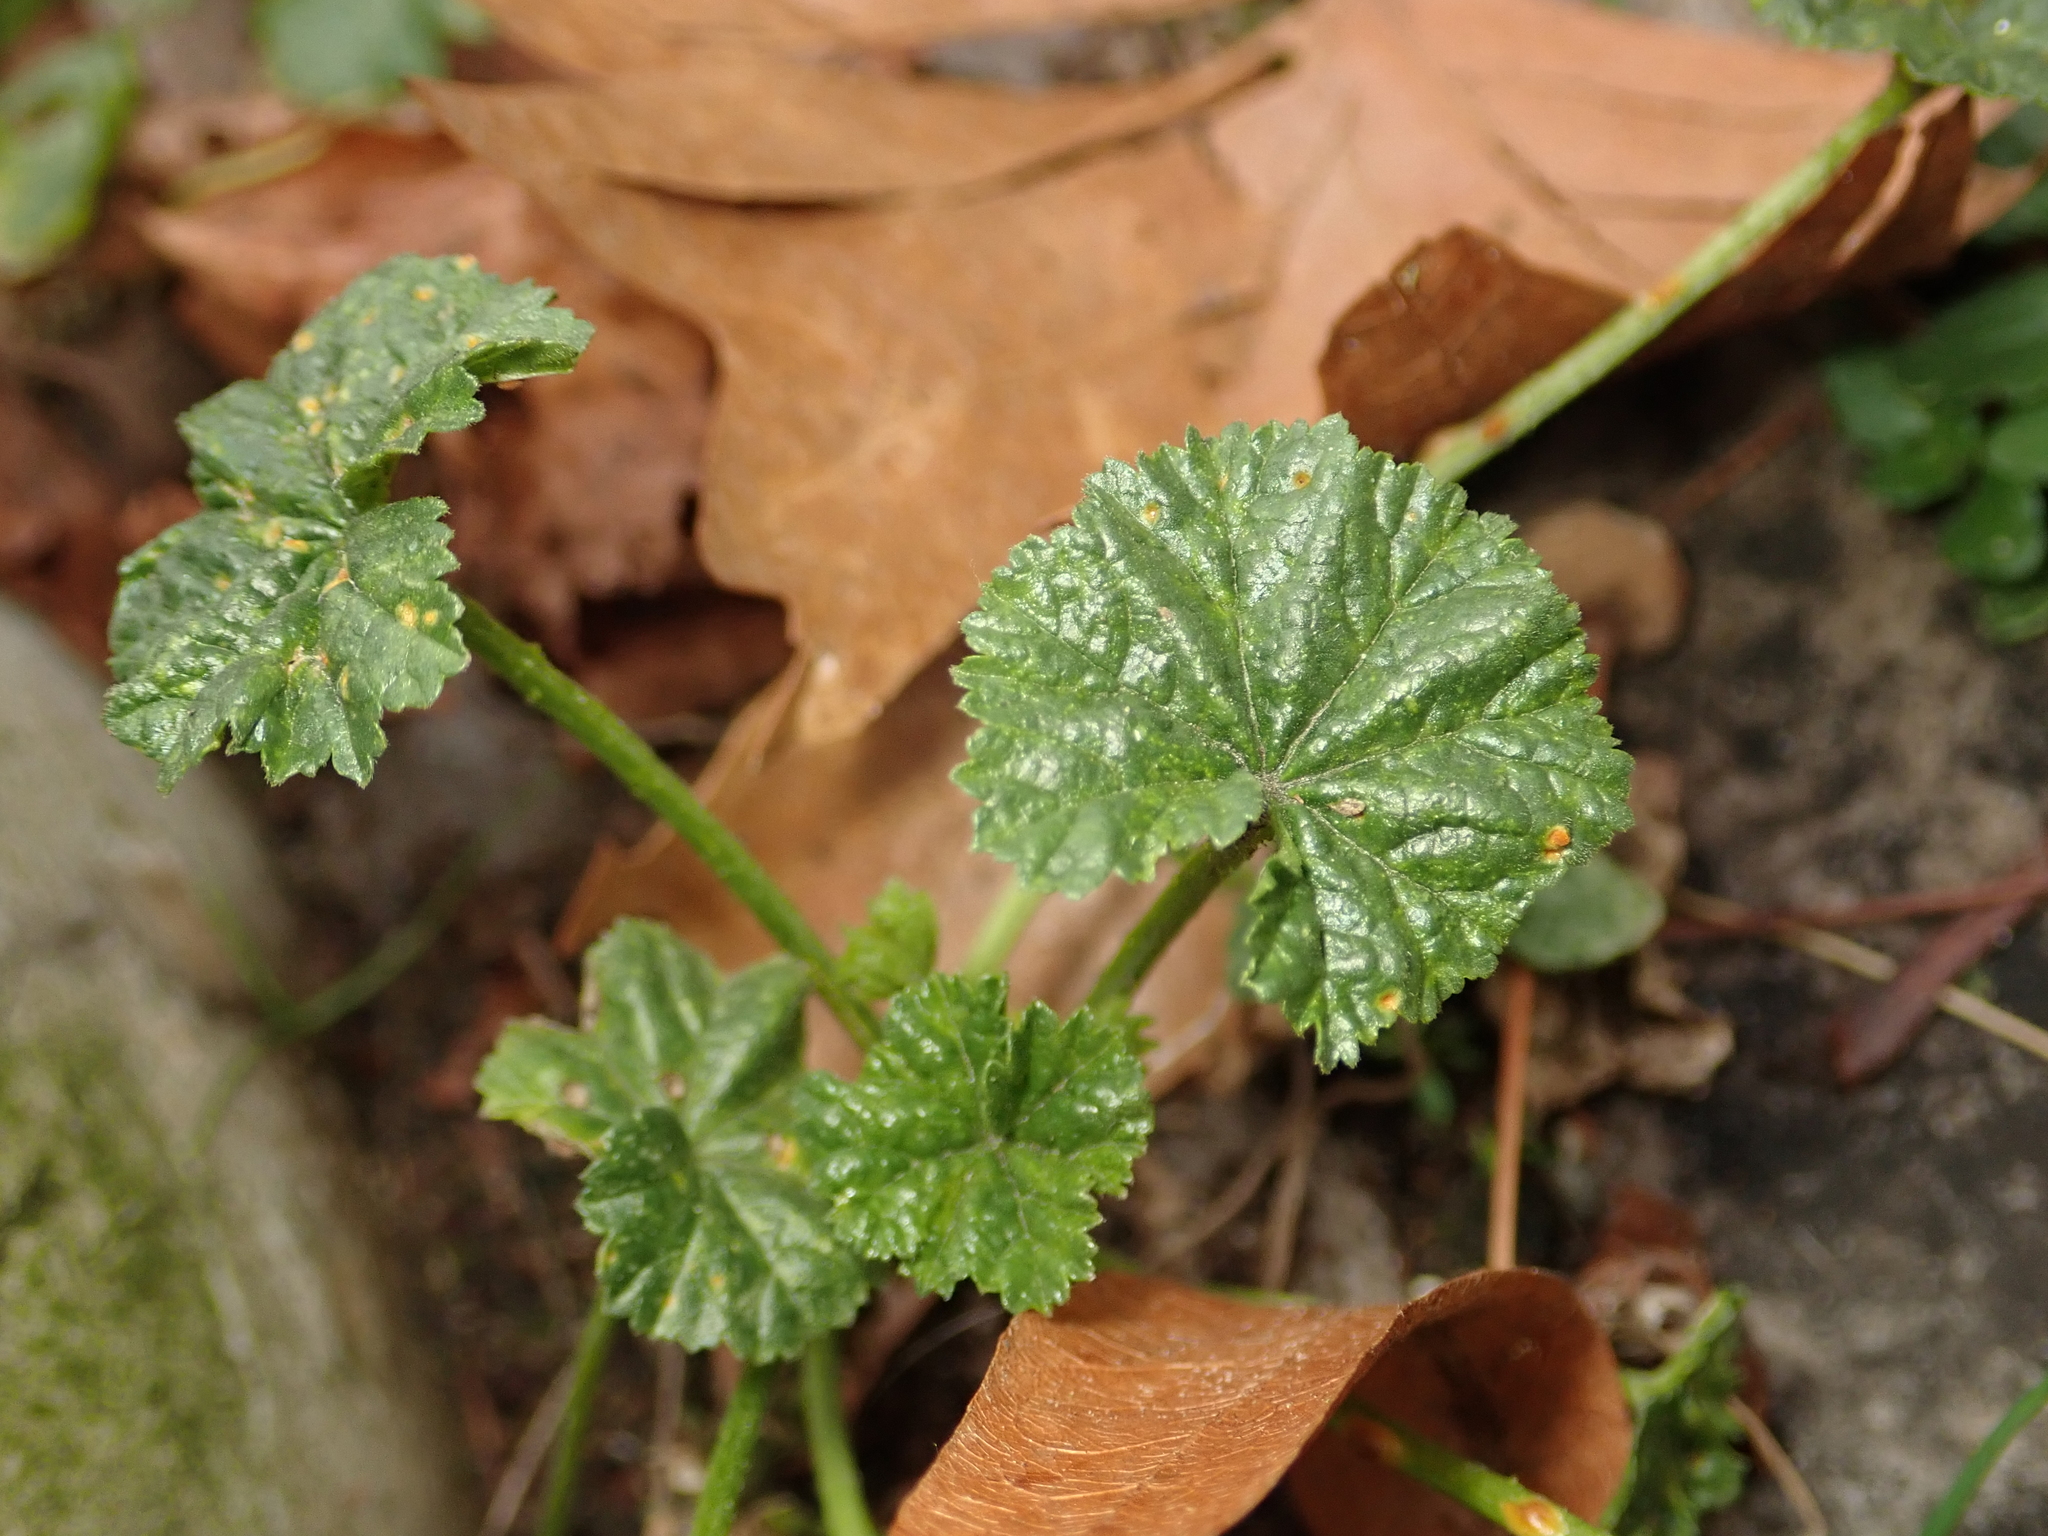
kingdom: Plantae
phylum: Tracheophyta
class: Magnoliopsida
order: Malvales
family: Malvaceae
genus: Malva
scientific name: Malva neglecta
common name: Common mallow
